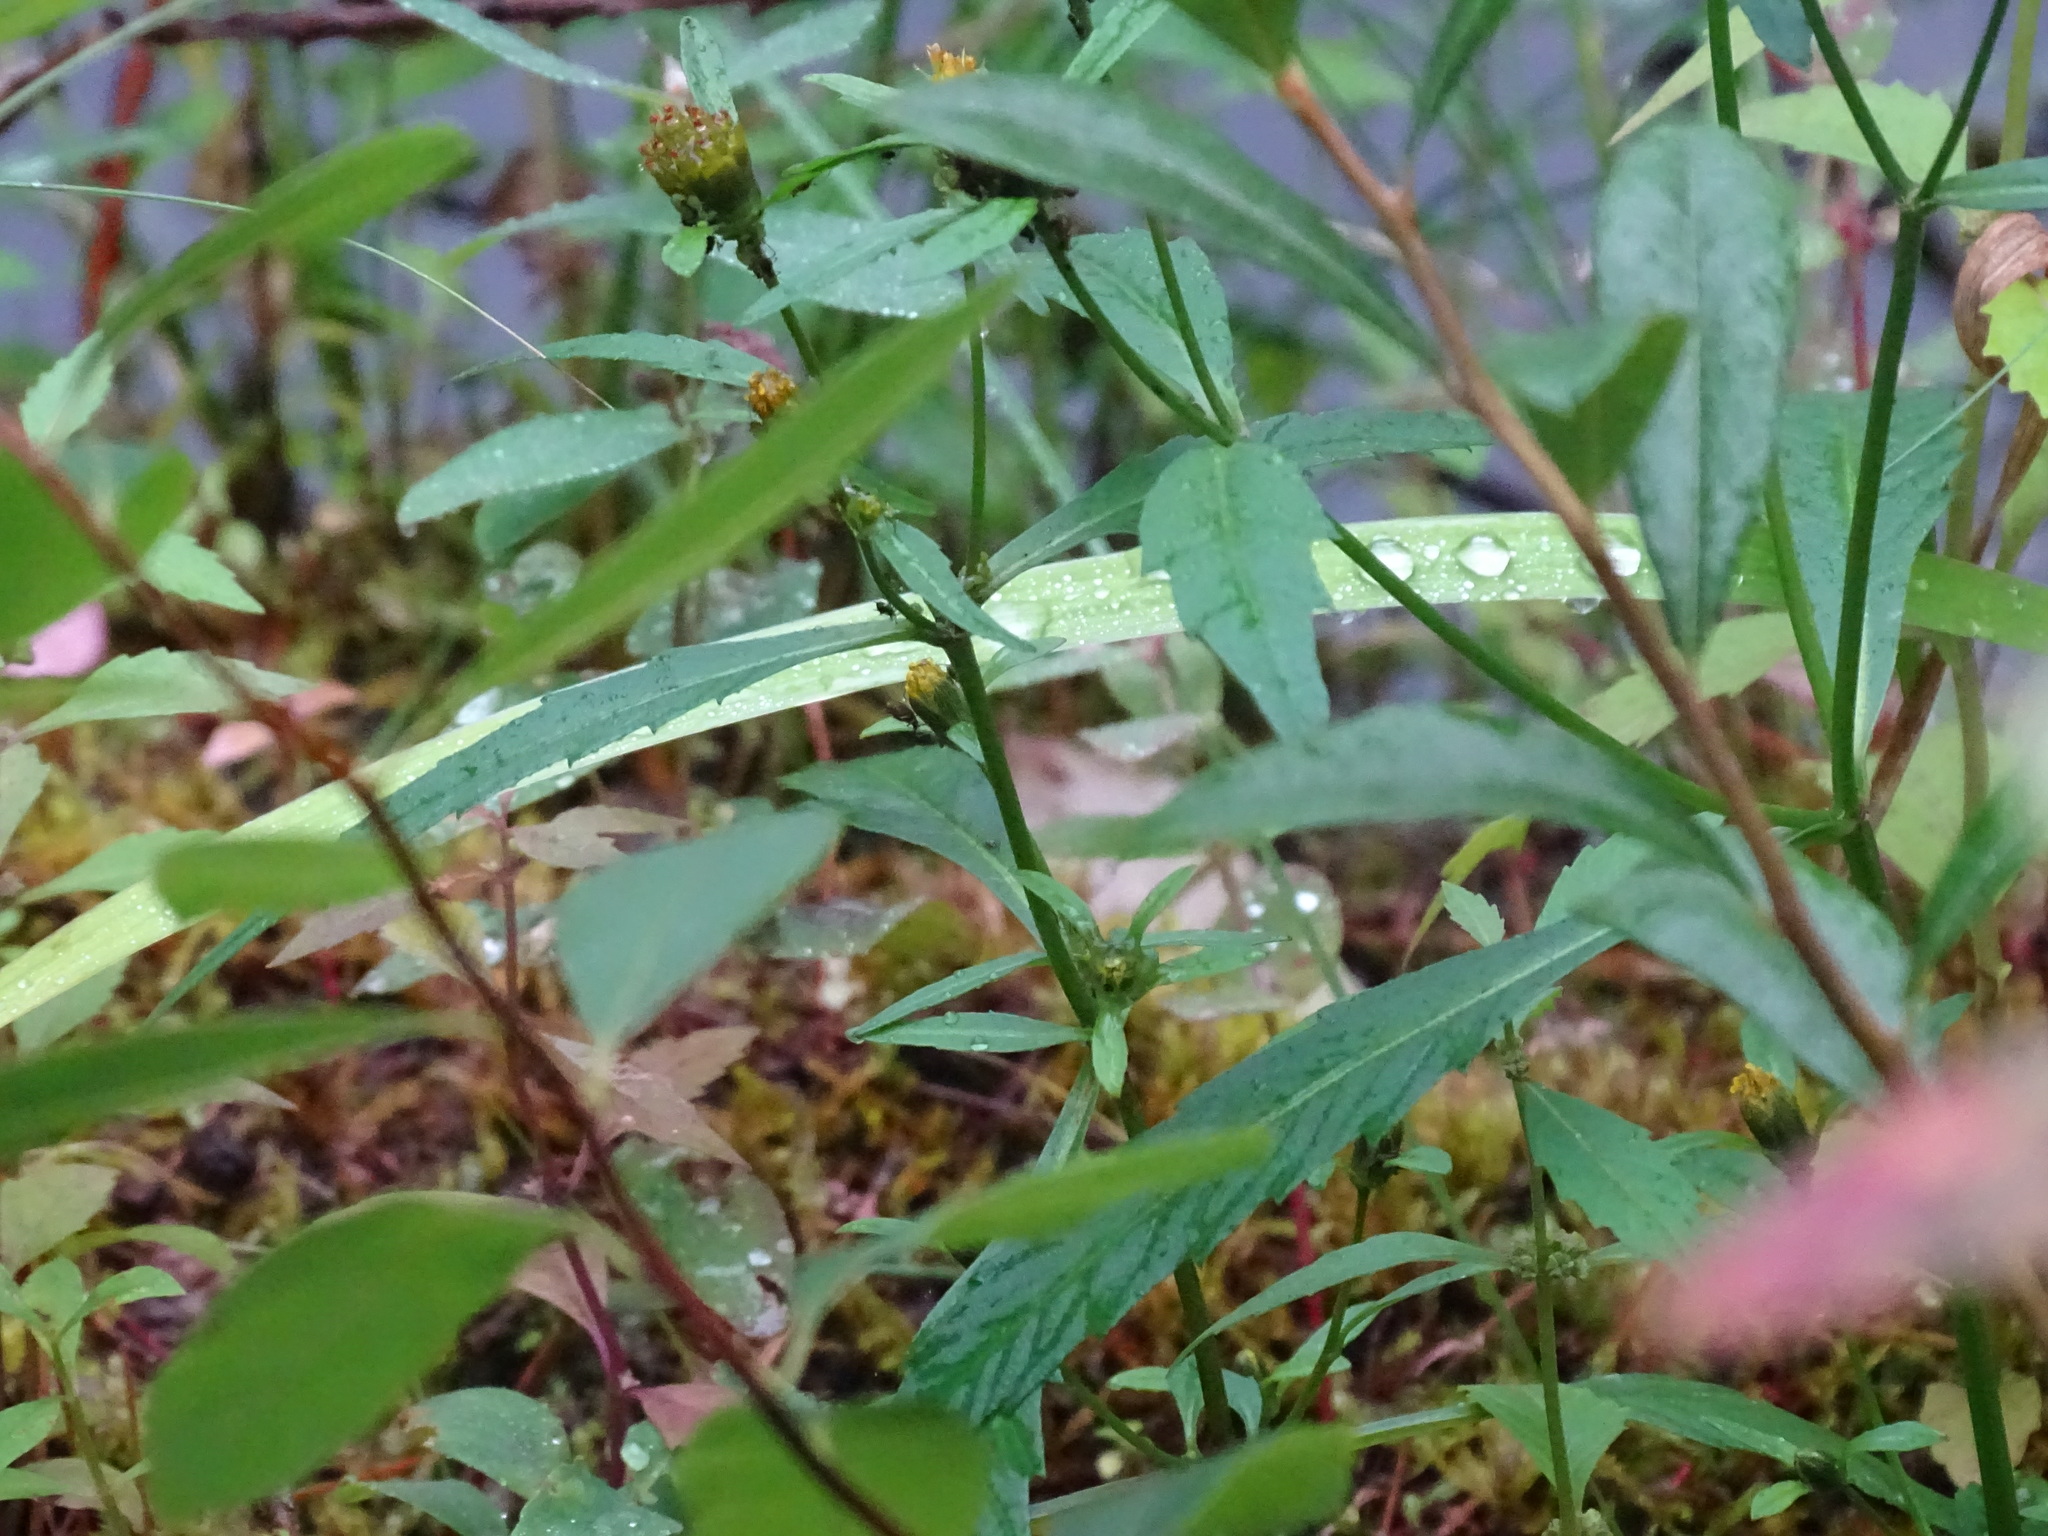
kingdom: Plantae
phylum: Tracheophyta
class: Magnoliopsida
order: Asterales
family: Asteraceae
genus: Bidens
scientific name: Bidens connata
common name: London bur-marigold
